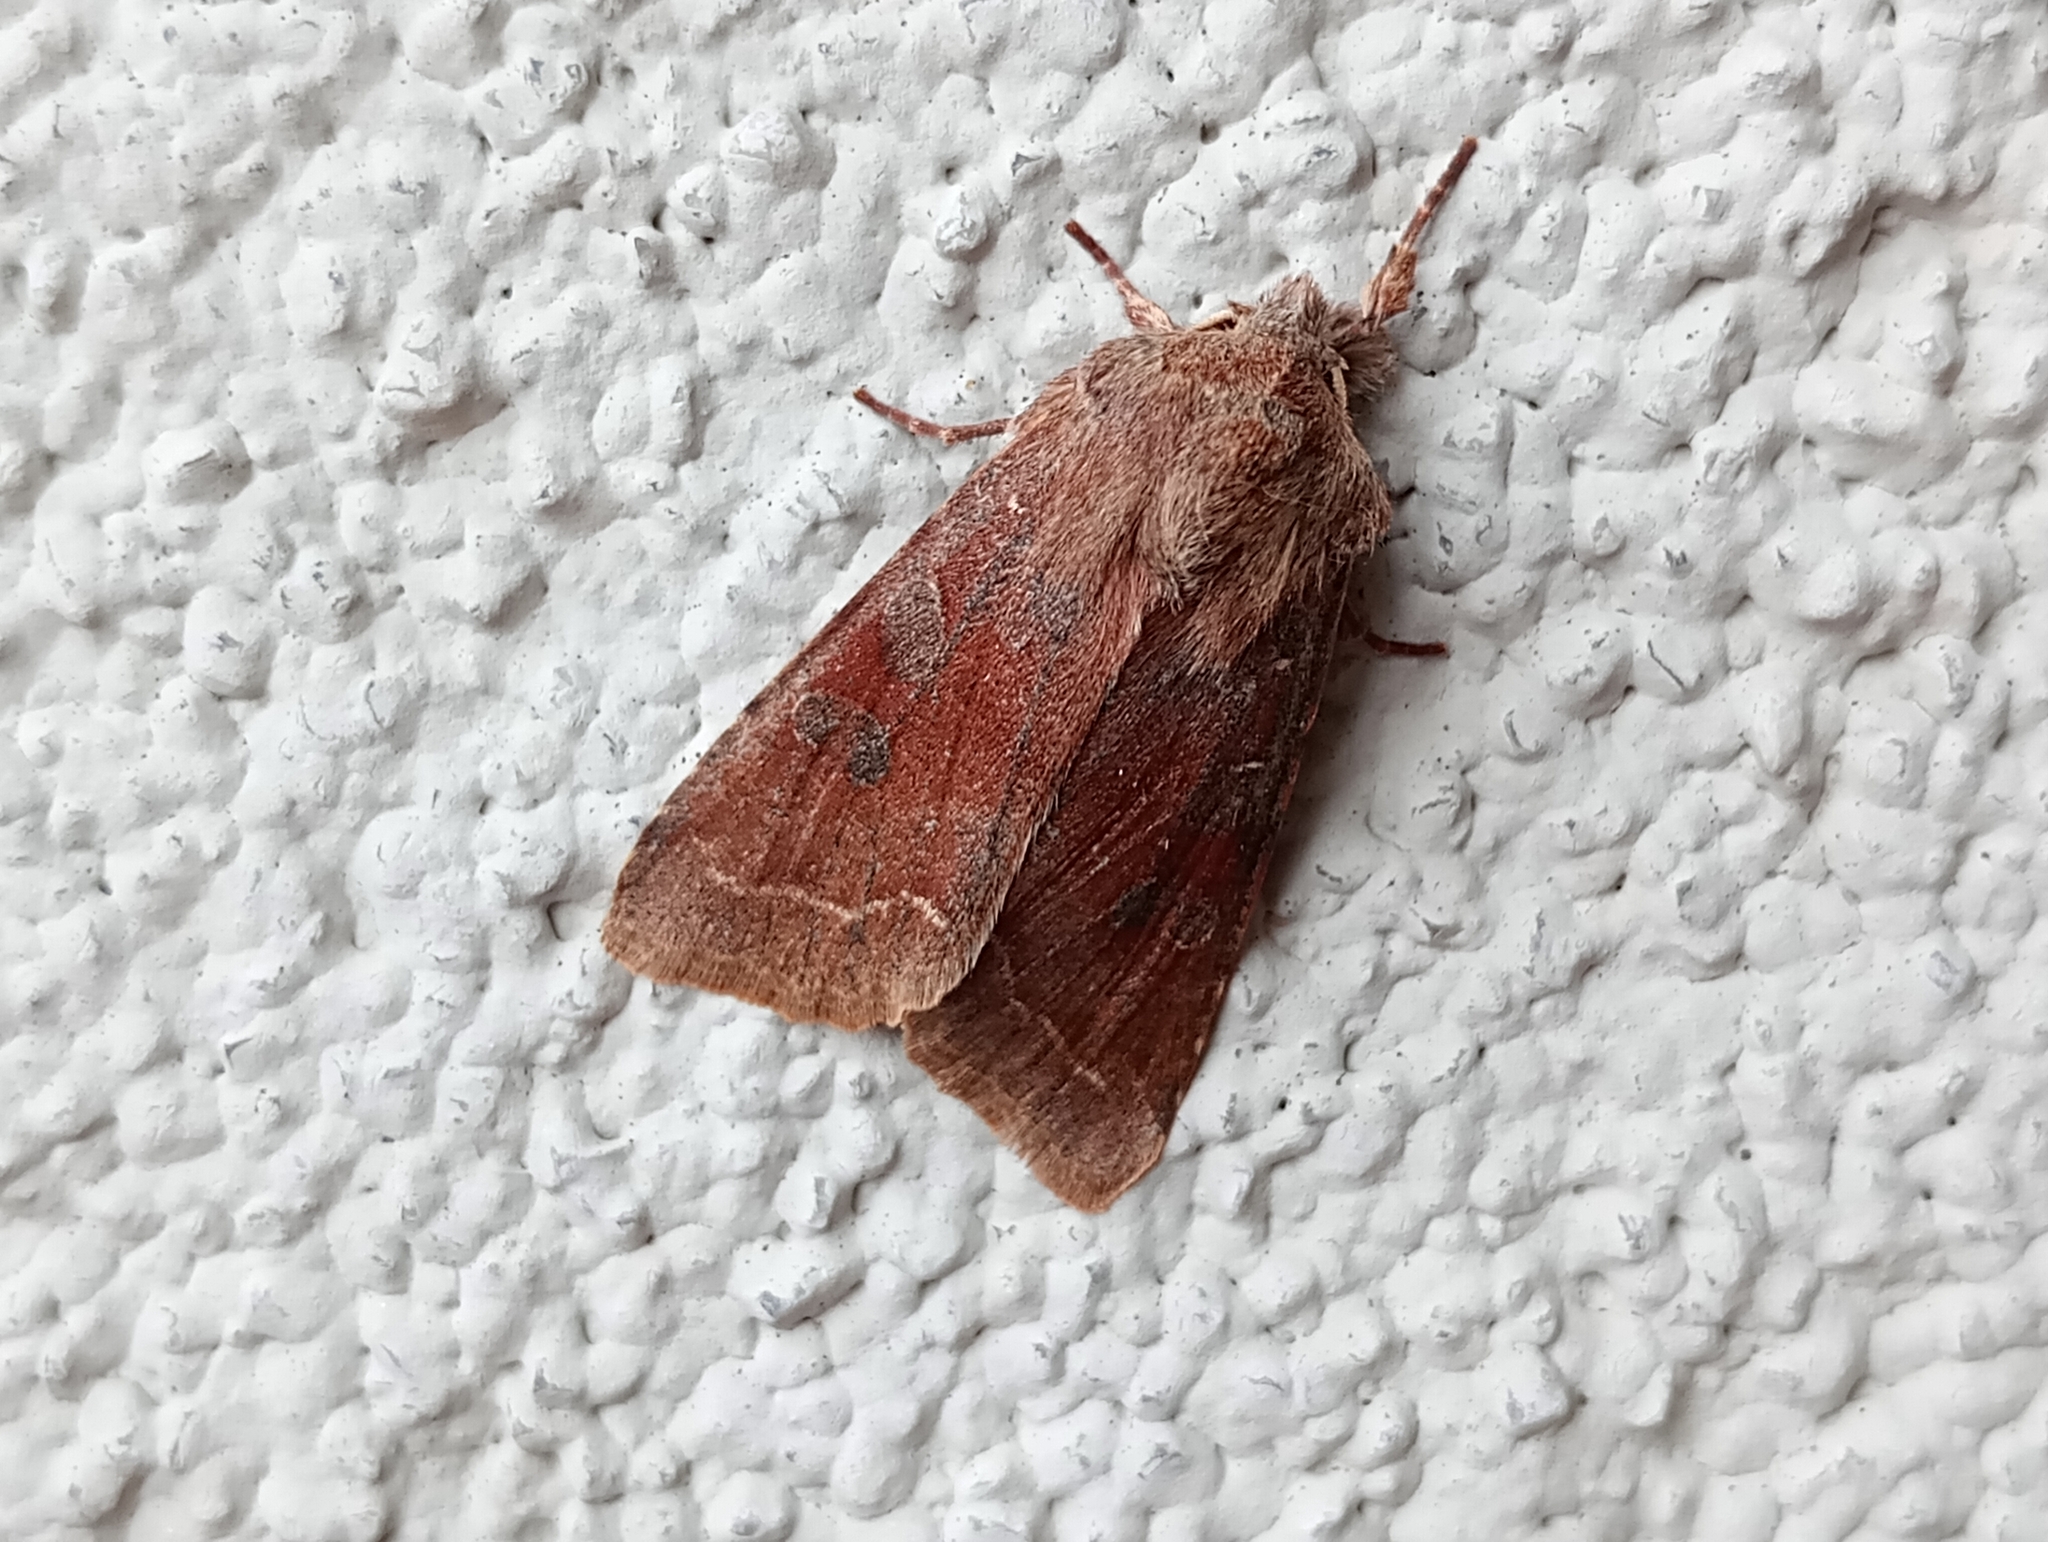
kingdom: Animalia
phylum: Arthropoda
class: Insecta
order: Lepidoptera
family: Noctuidae
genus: Orthosia
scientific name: Orthosia incerta
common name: Clouded drab
